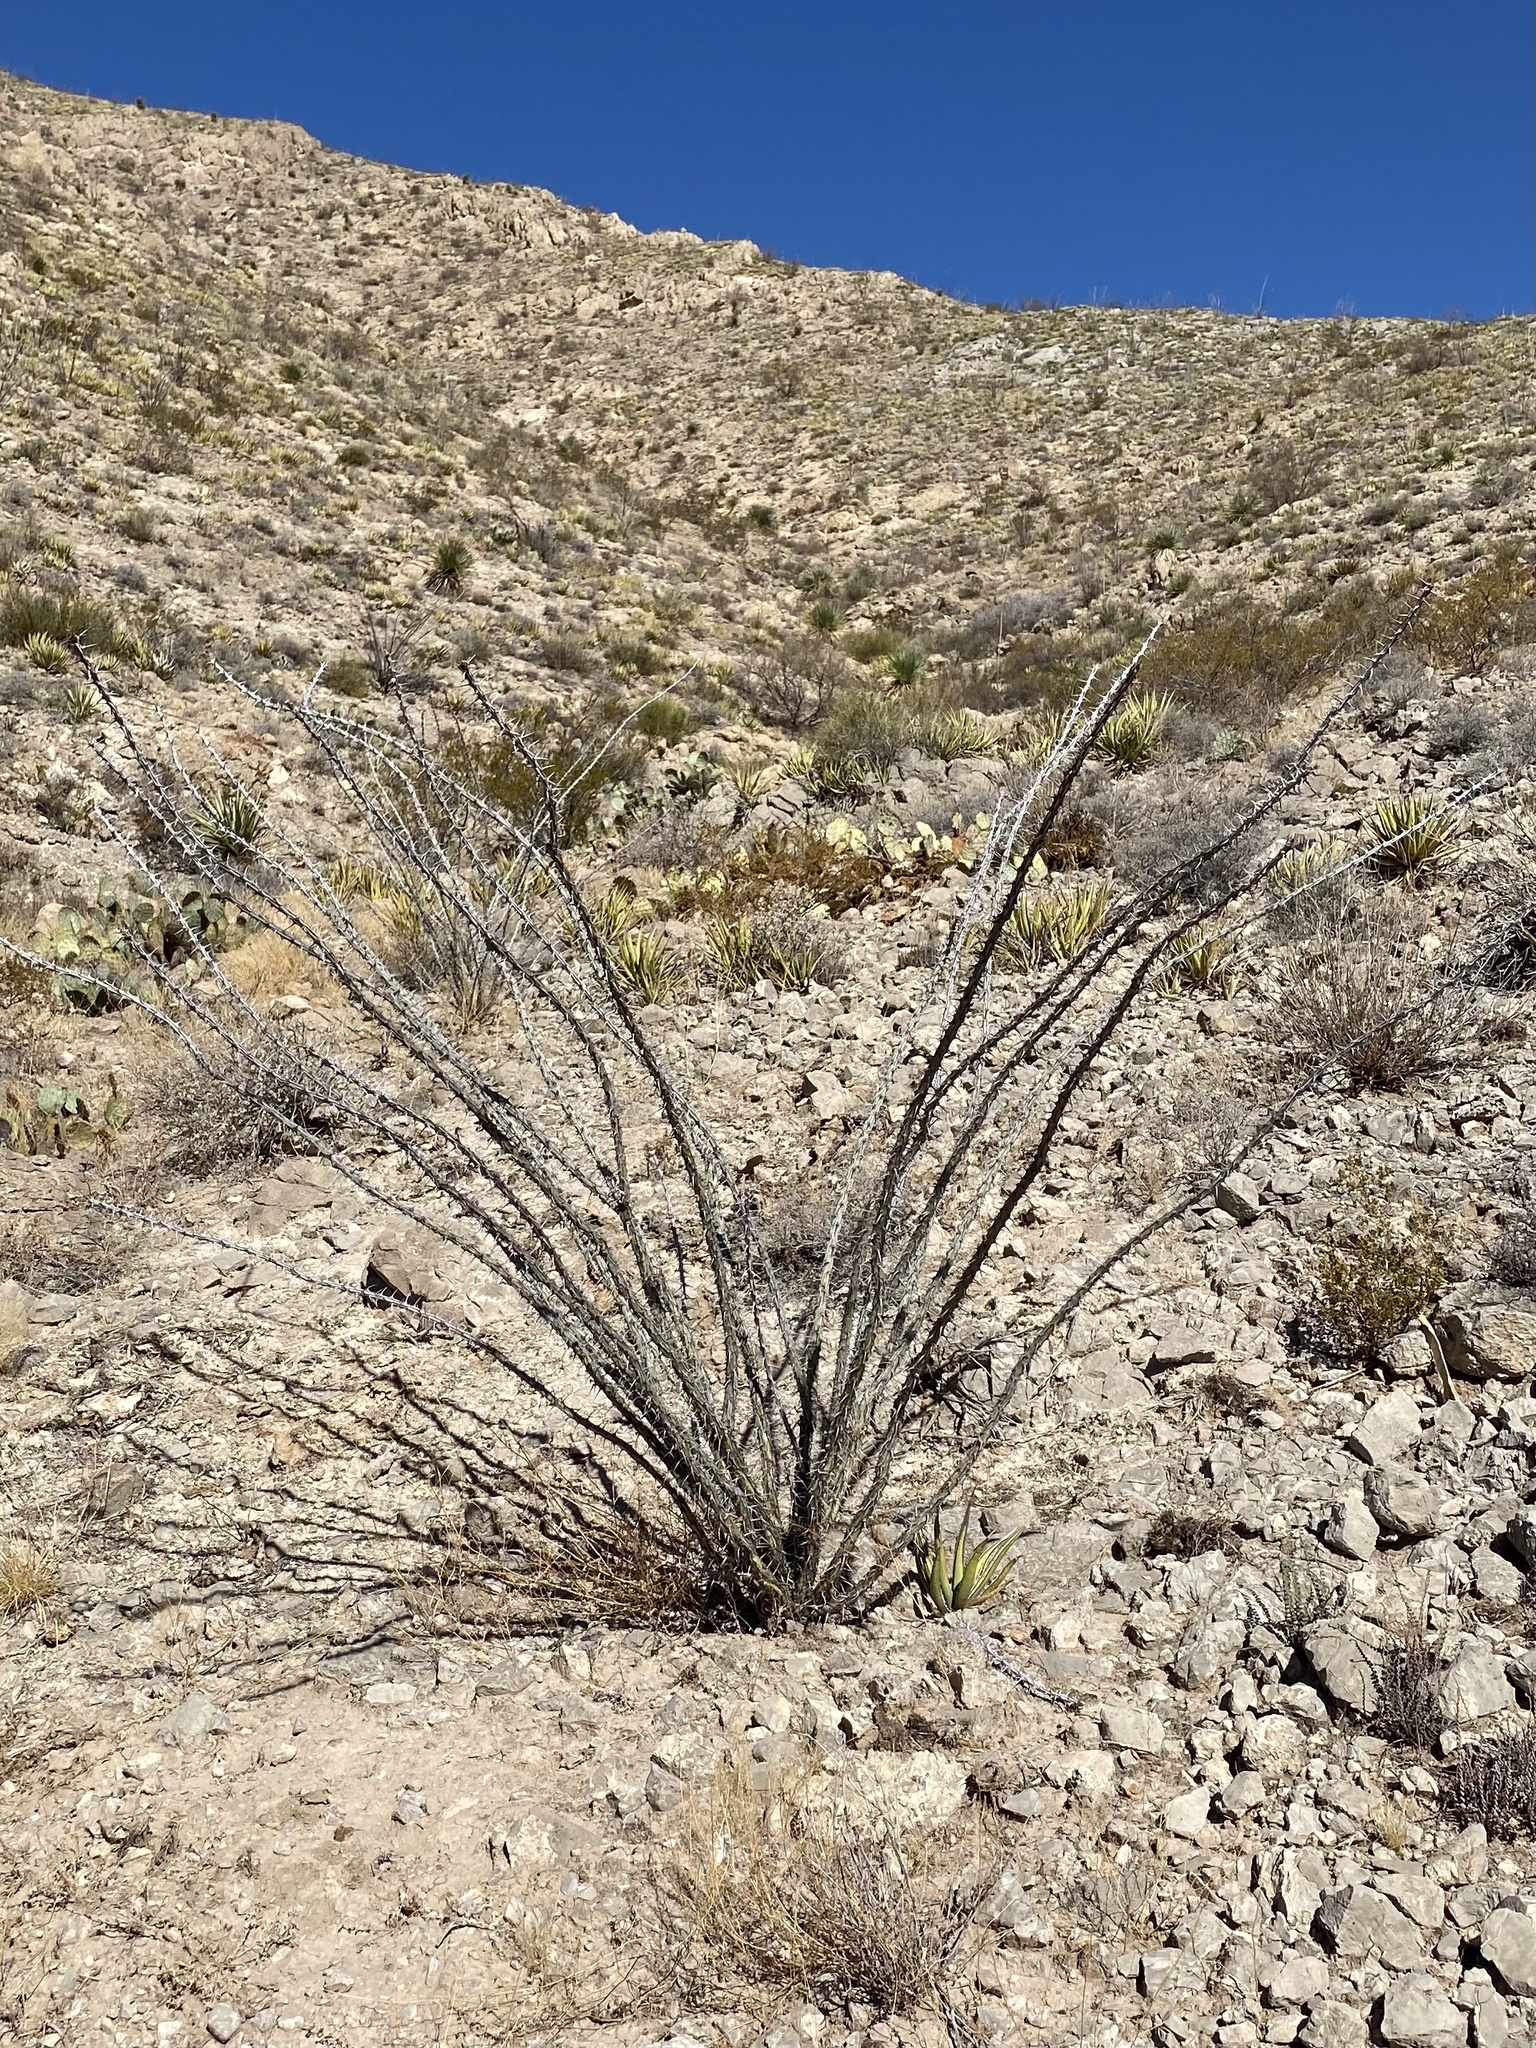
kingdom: Plantae
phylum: Tracheophyta
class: Magnoliopsida
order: Ericales
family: Fouquieriaceae
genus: Fouquieria
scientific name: Fouquieria splendens
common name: Vine-cactus
